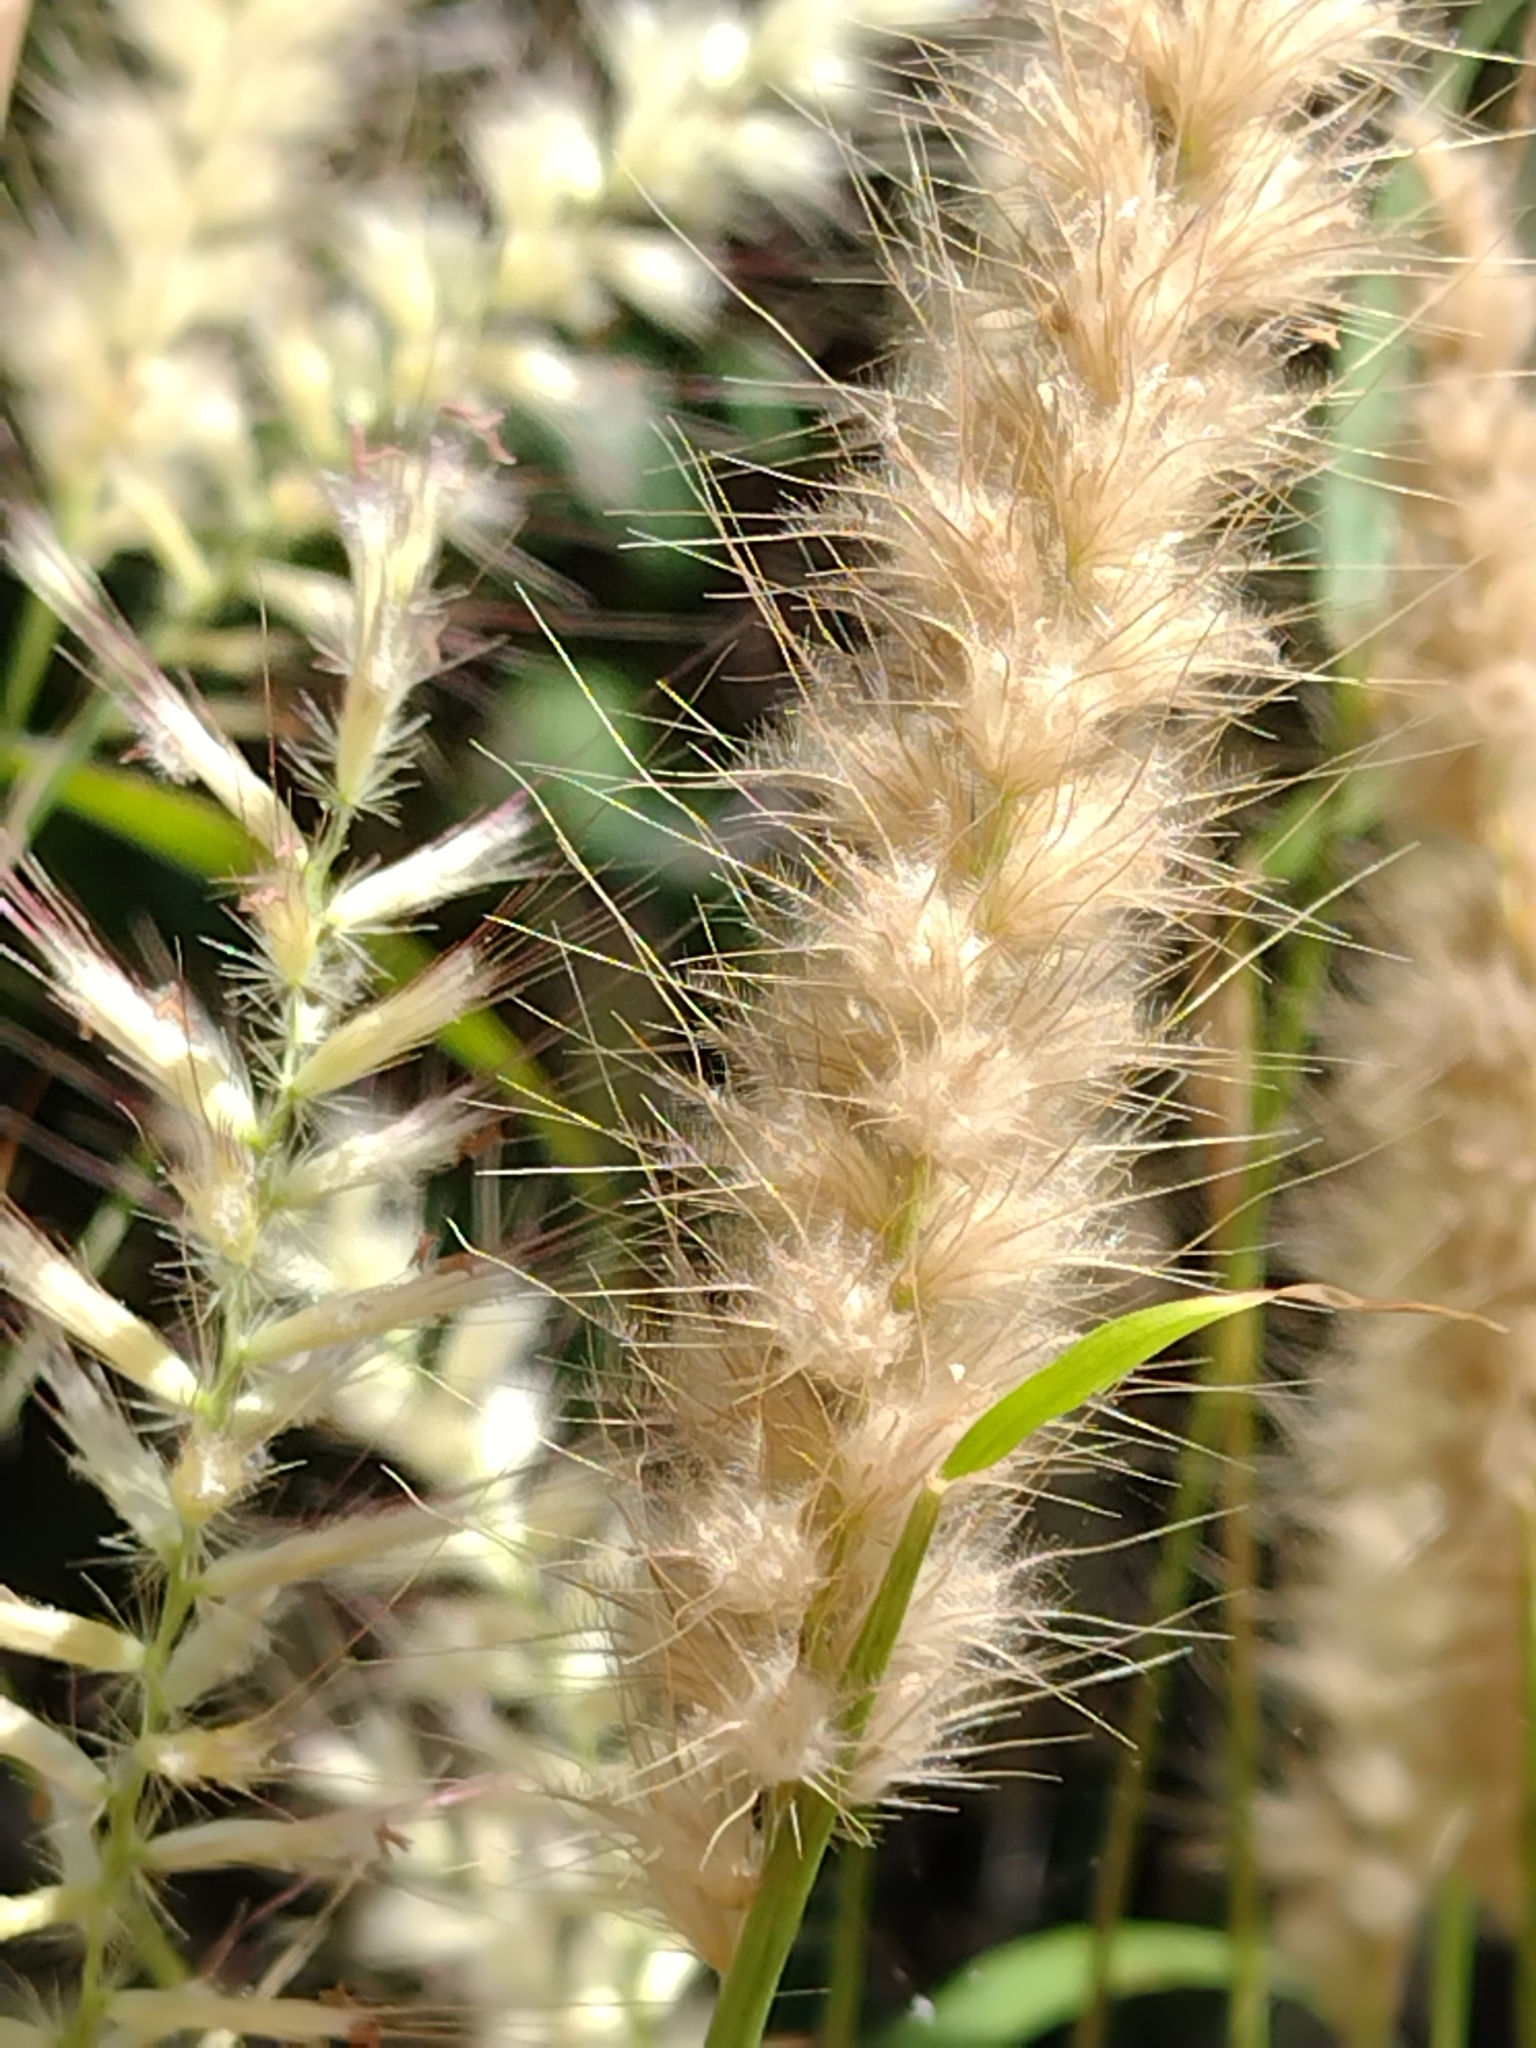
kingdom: Plantae
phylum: Tracheophyta
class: Liliopsida
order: Poales
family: Poaceae
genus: Cenchrus
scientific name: Cenchrus pedicellatus
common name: Hairy fountain grass
